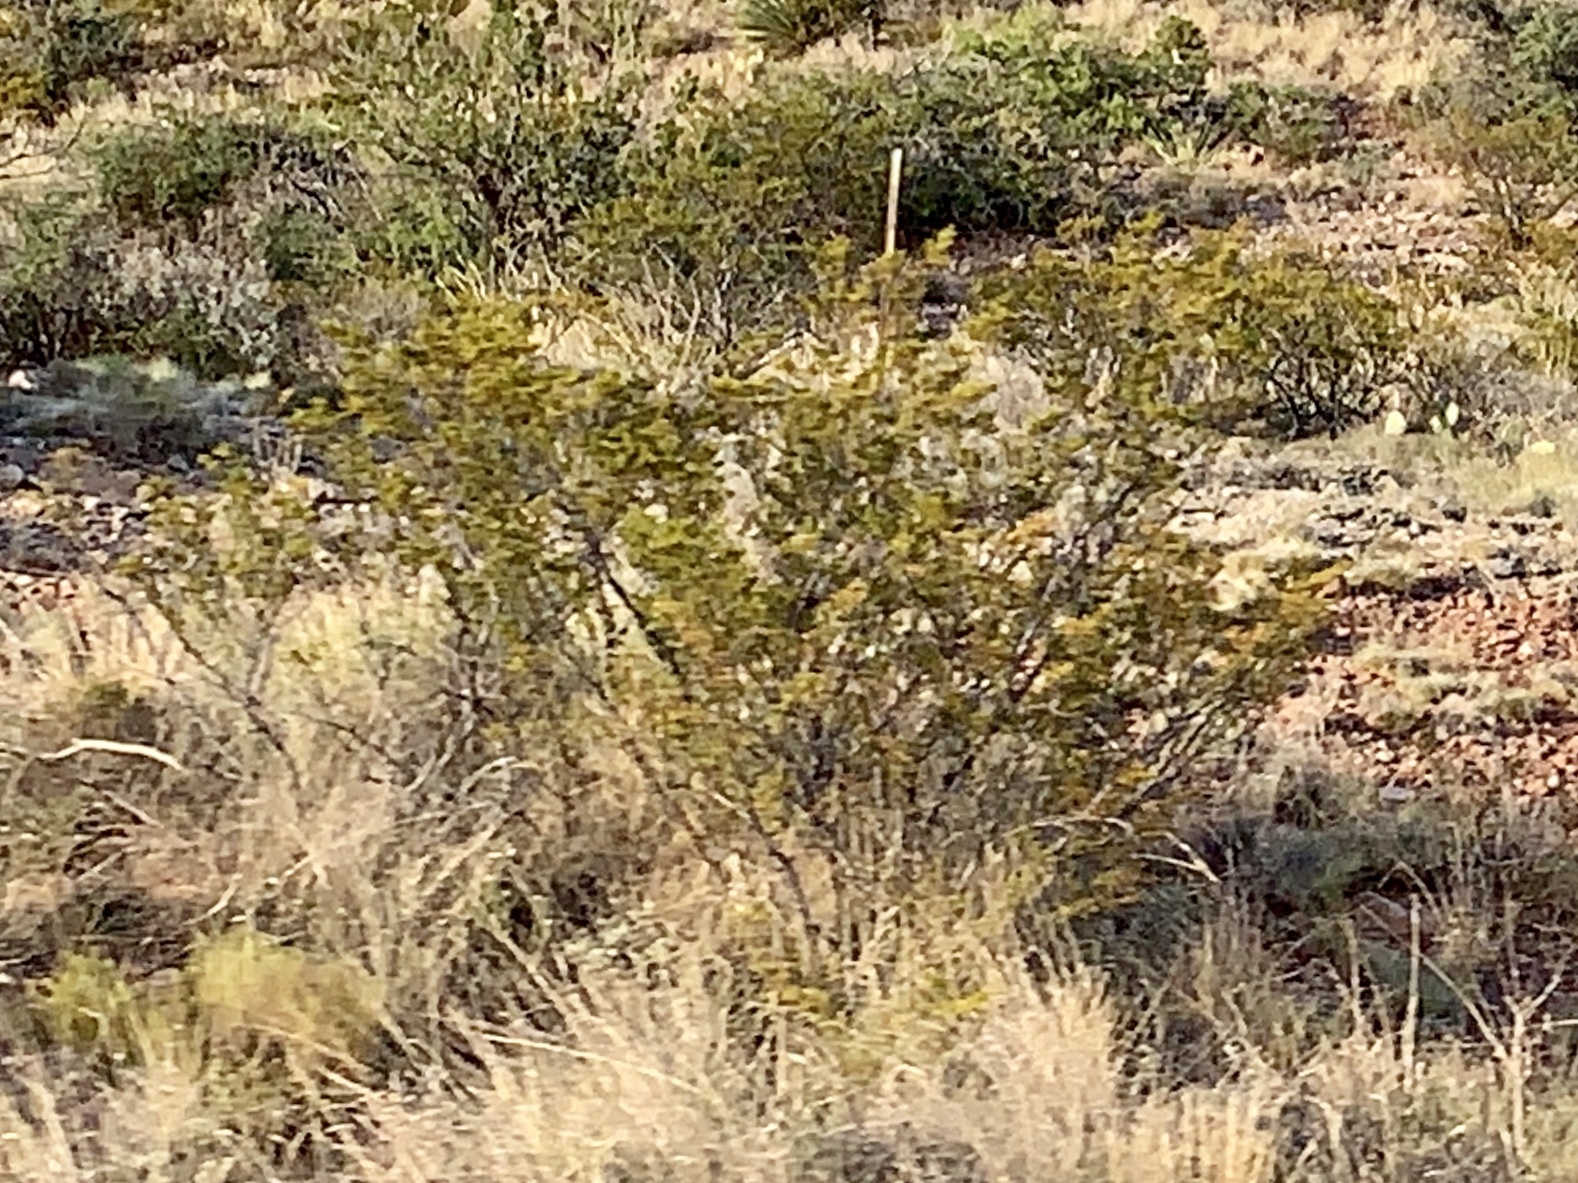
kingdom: Plantae
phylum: Tracheophyta
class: Magnoliopsida
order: Zygophyllales
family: Zygophyllaceae
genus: Larrea
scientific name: Larrea tridentata
